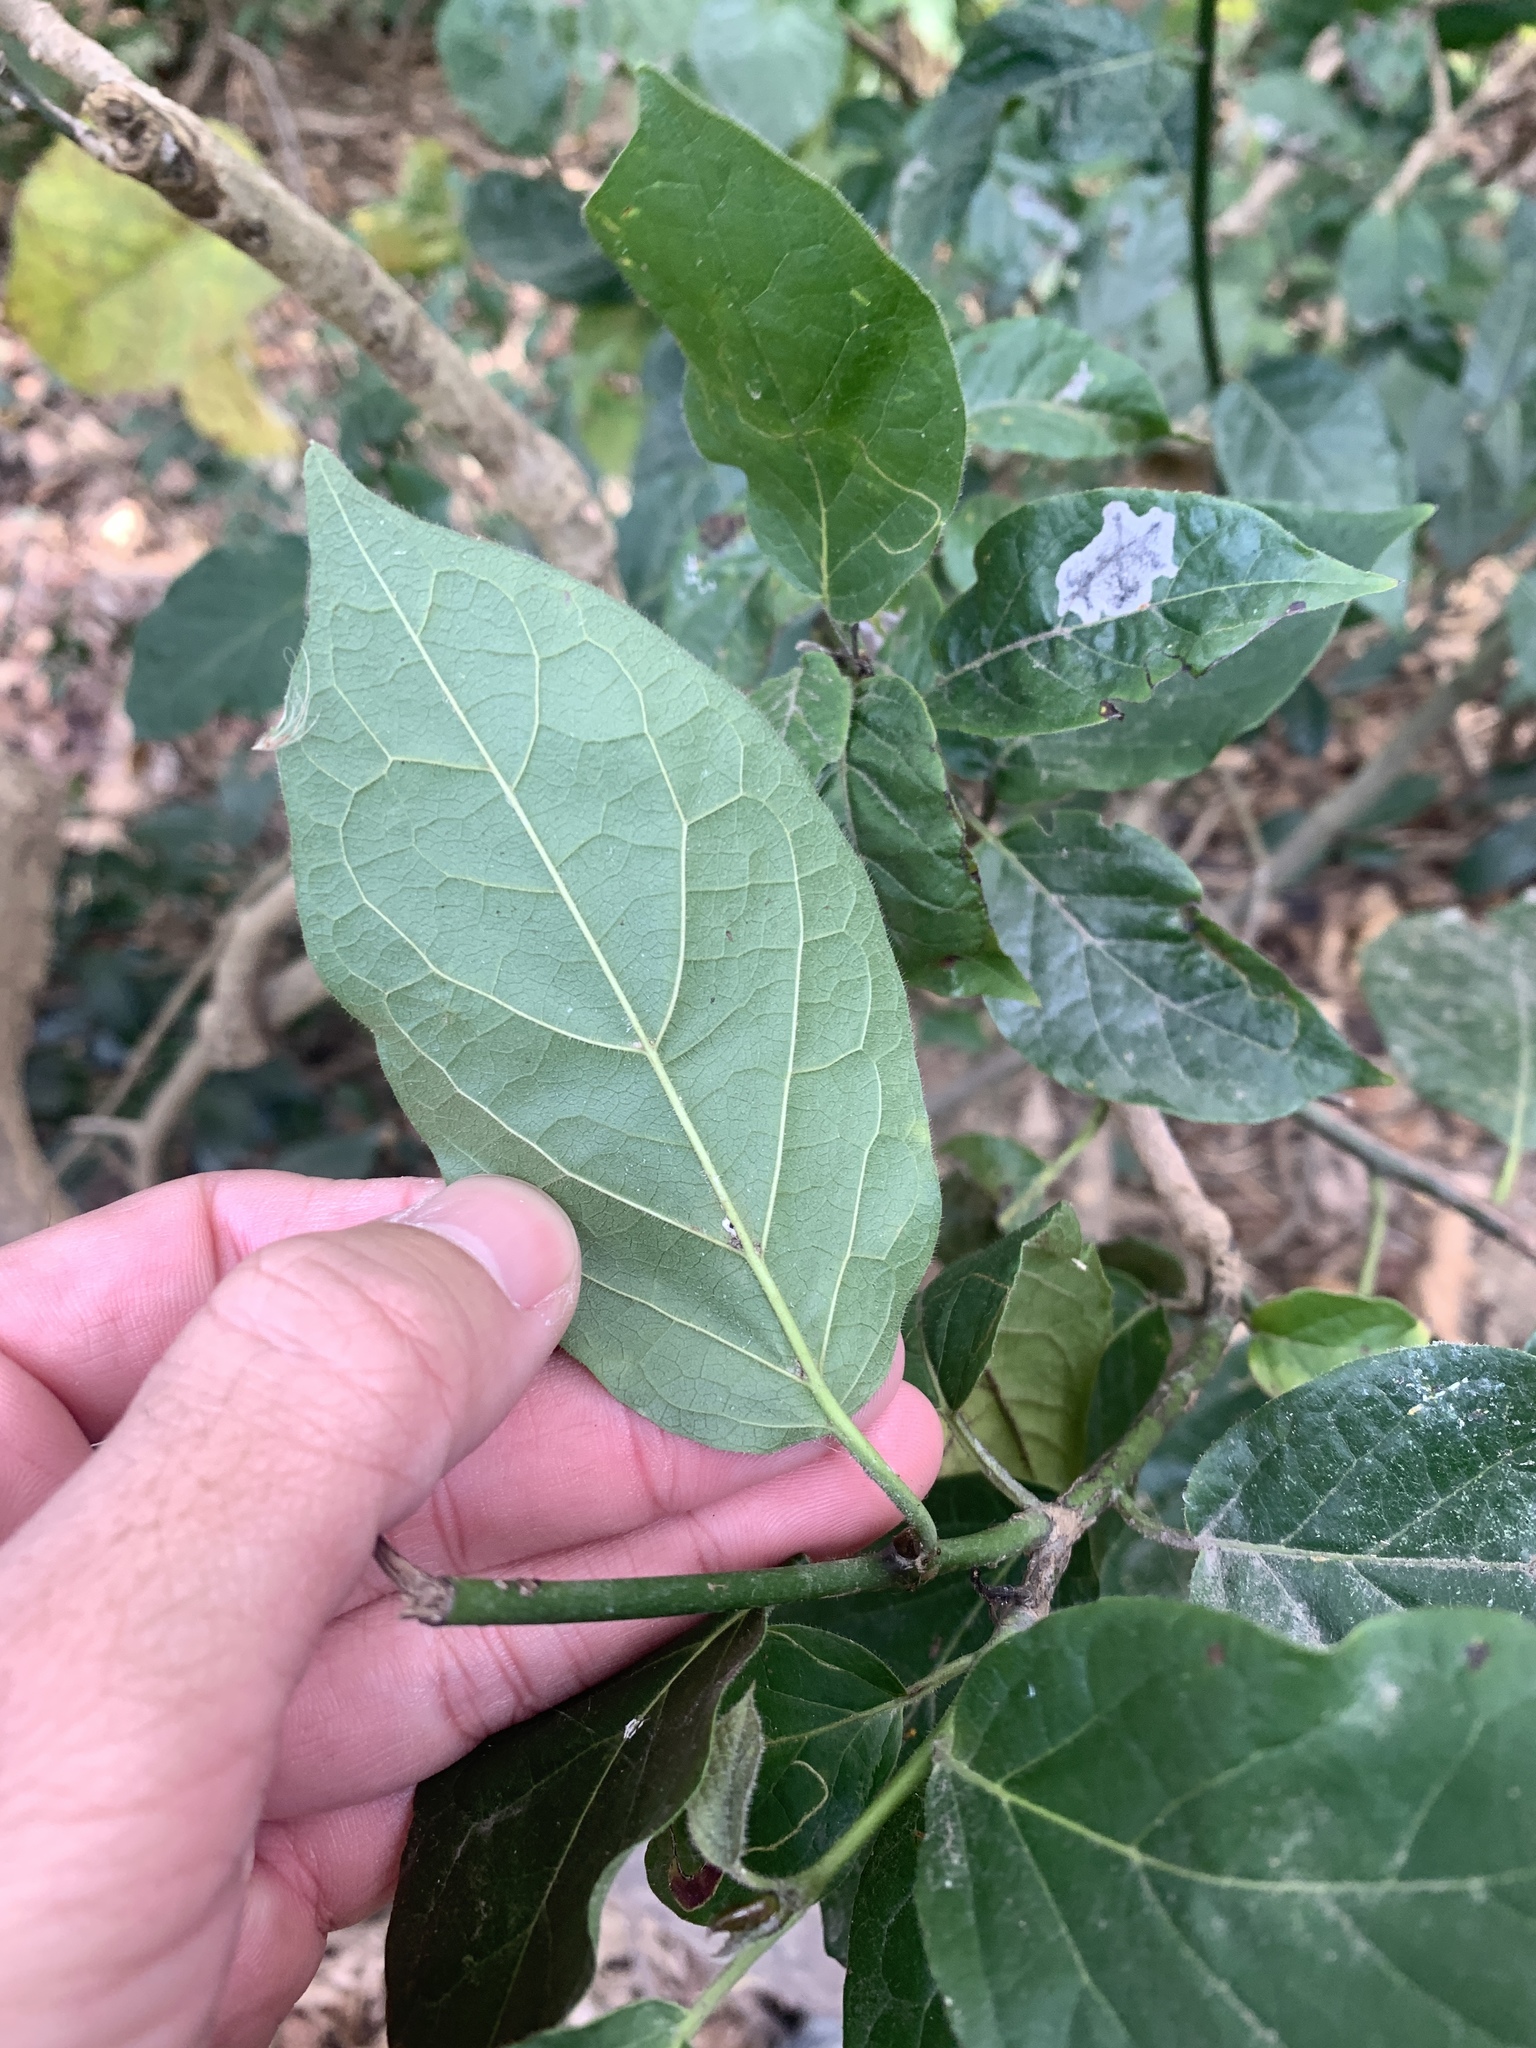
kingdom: Plantae
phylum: Tracheophyta
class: Magnoliopsida
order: Boraginales
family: Ehretiaceae
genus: Ehretia
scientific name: Ehretia resinosa
